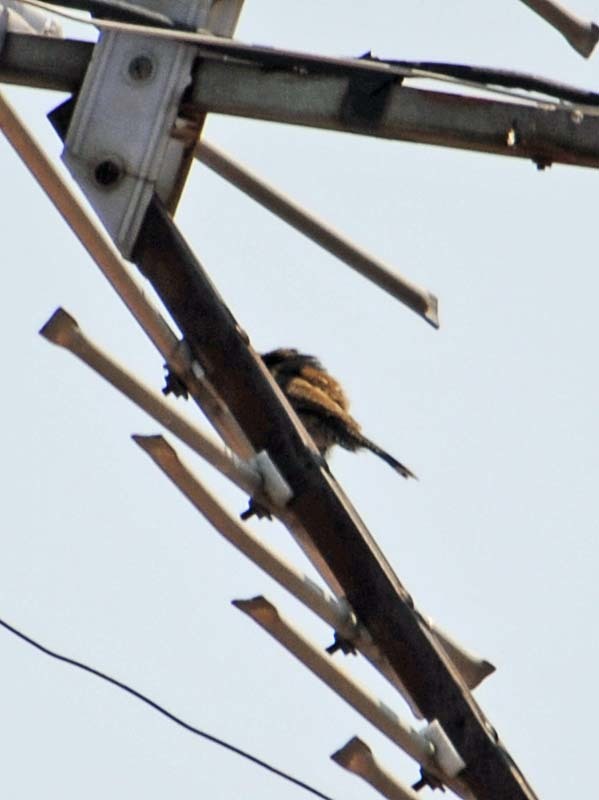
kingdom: Animalia
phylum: Chordata
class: Aves
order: Passeriformes
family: Troglodytidae
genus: Thryomanes
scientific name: Thryomanes bewickii
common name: Bewick's wren
